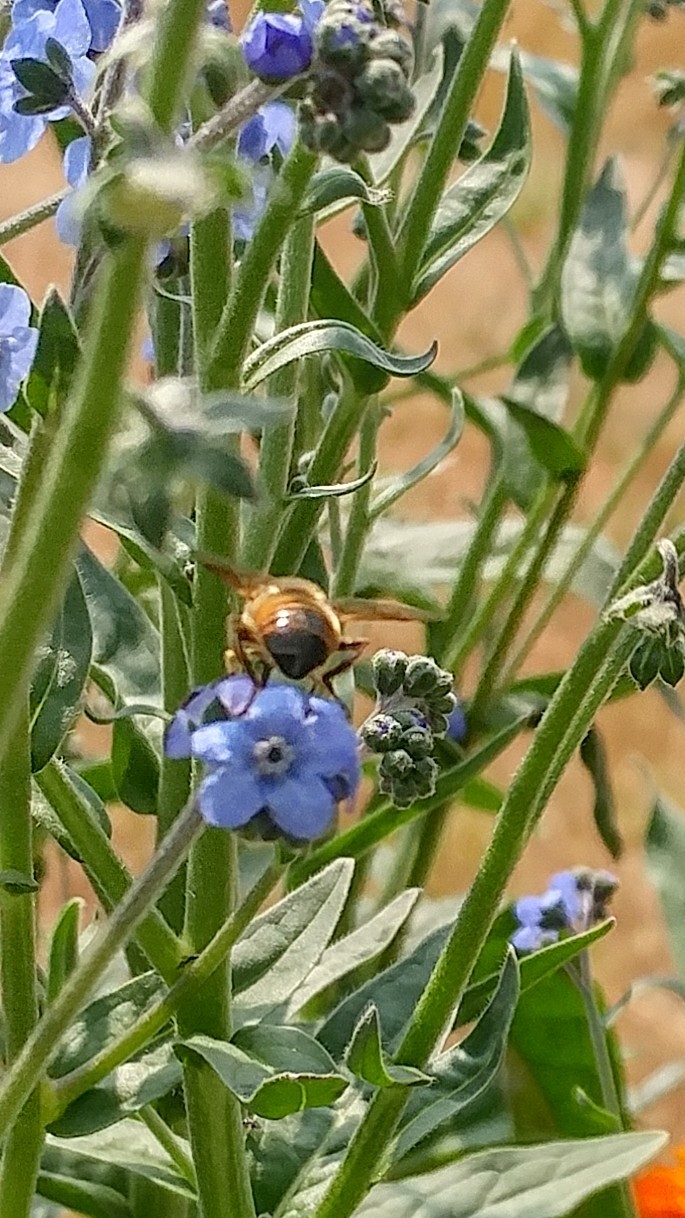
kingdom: Animalia
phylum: Arthropoda
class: Insecta
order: Diptera
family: Syrphidae
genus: Eristalis
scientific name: Eristalis tenax
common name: Drone fly
